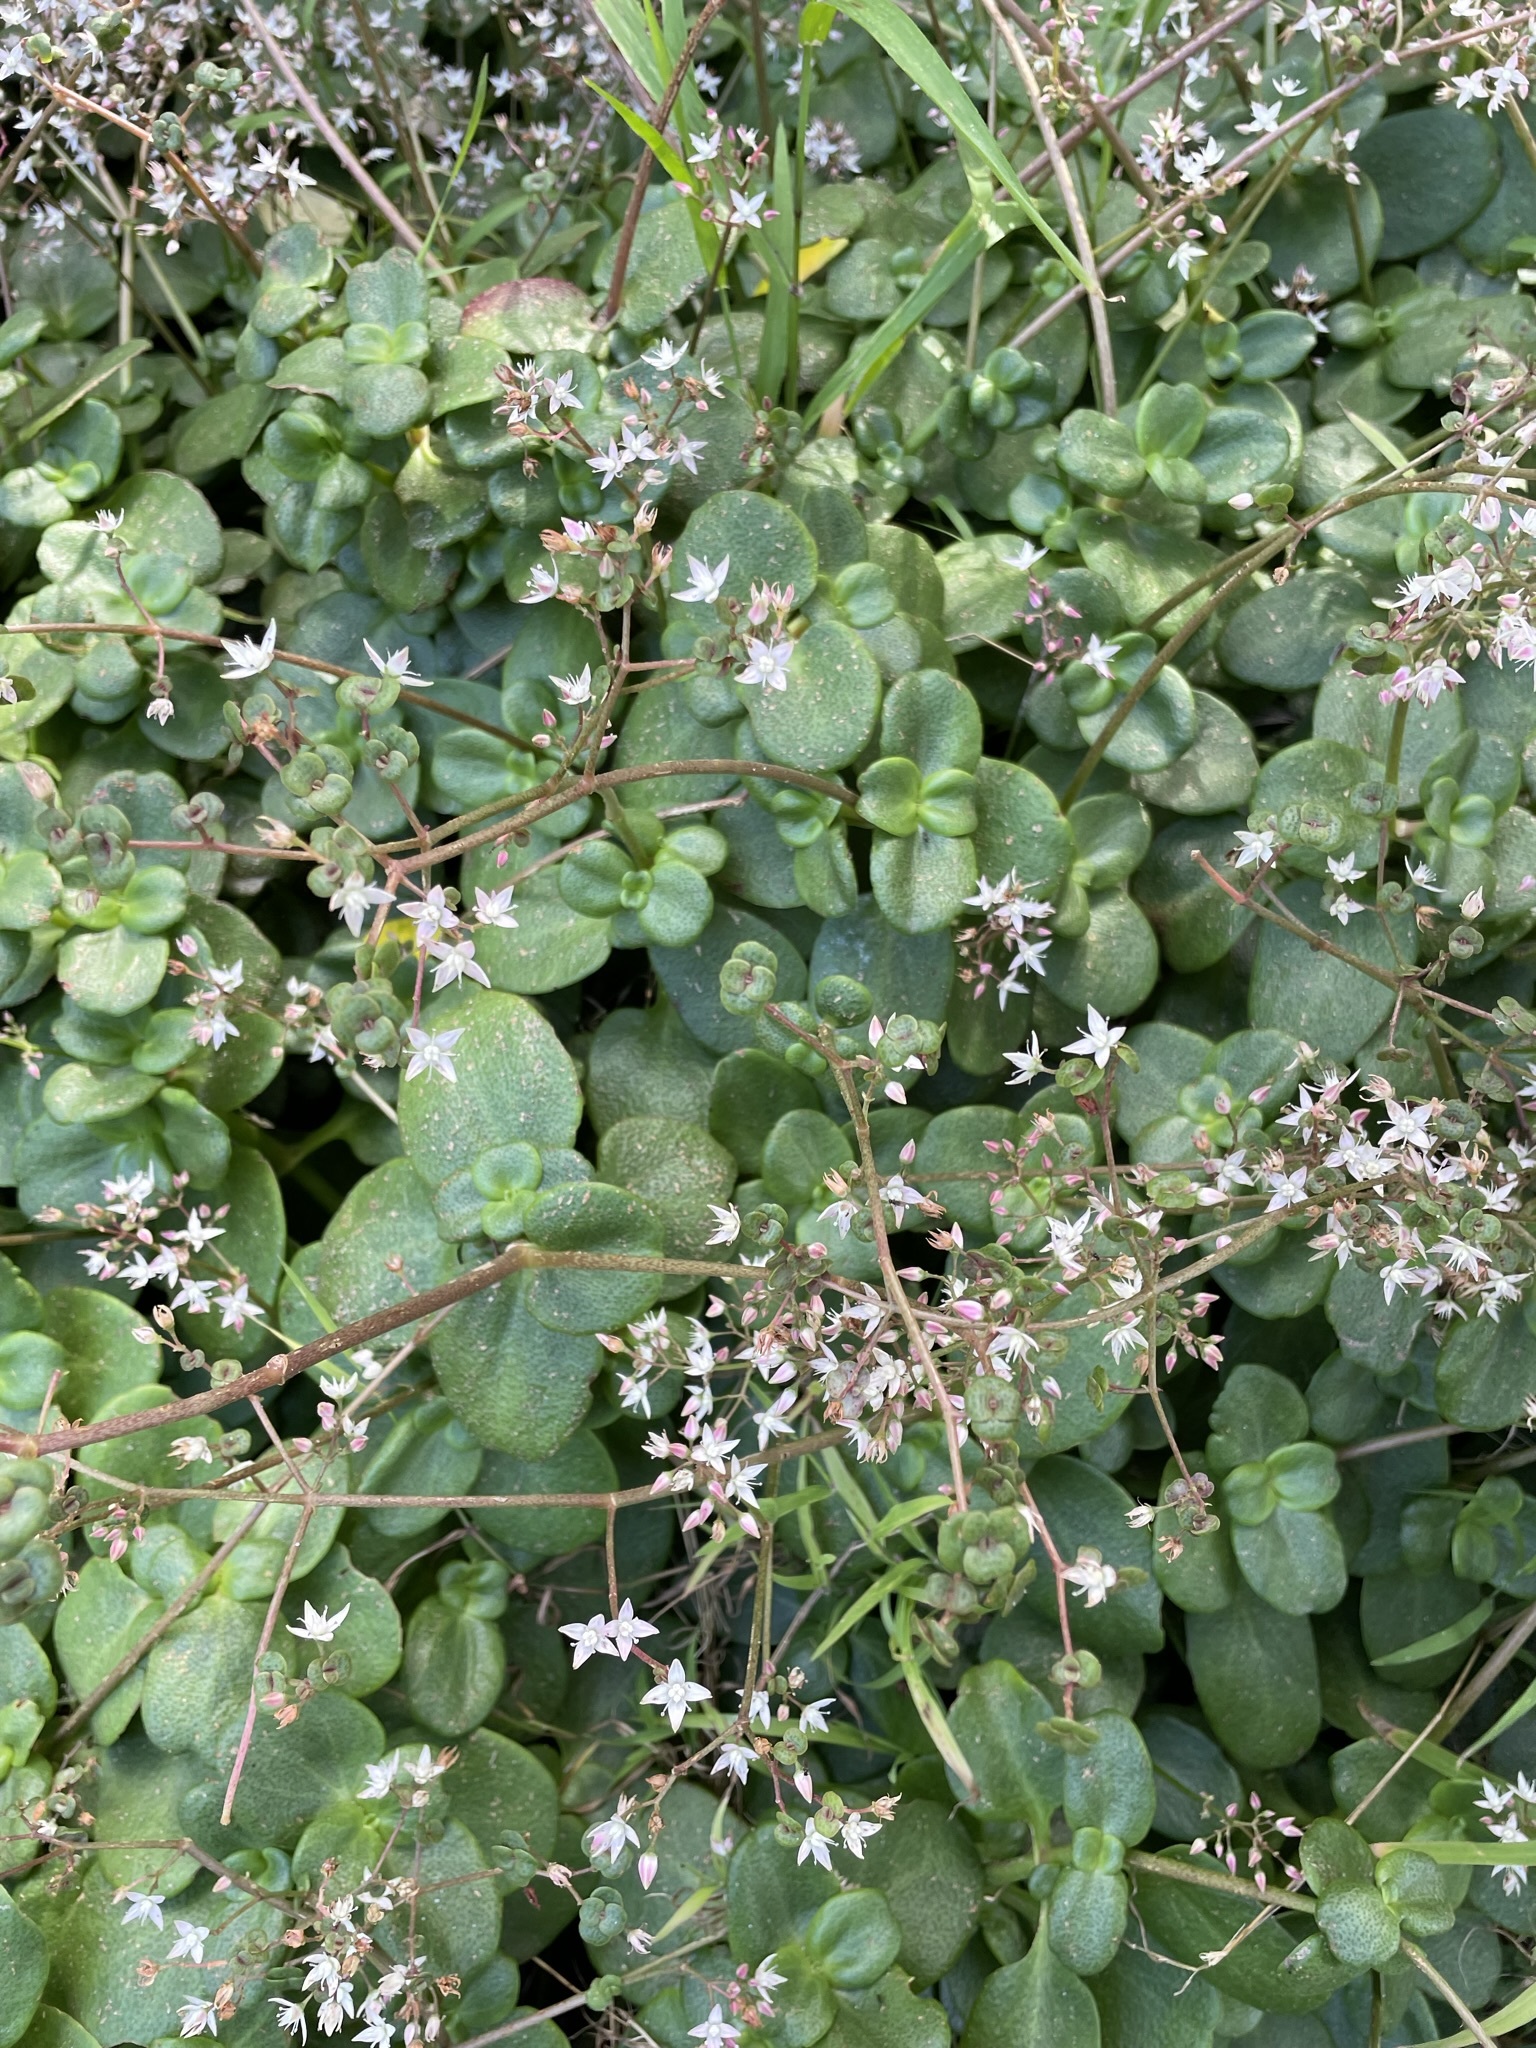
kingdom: Plantae
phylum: Tracheophyta
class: Magnoliopsida
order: Saxifragales
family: Crassulaceae
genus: Crassula
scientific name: Crassula multicava
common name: Cape province pygmyweed
